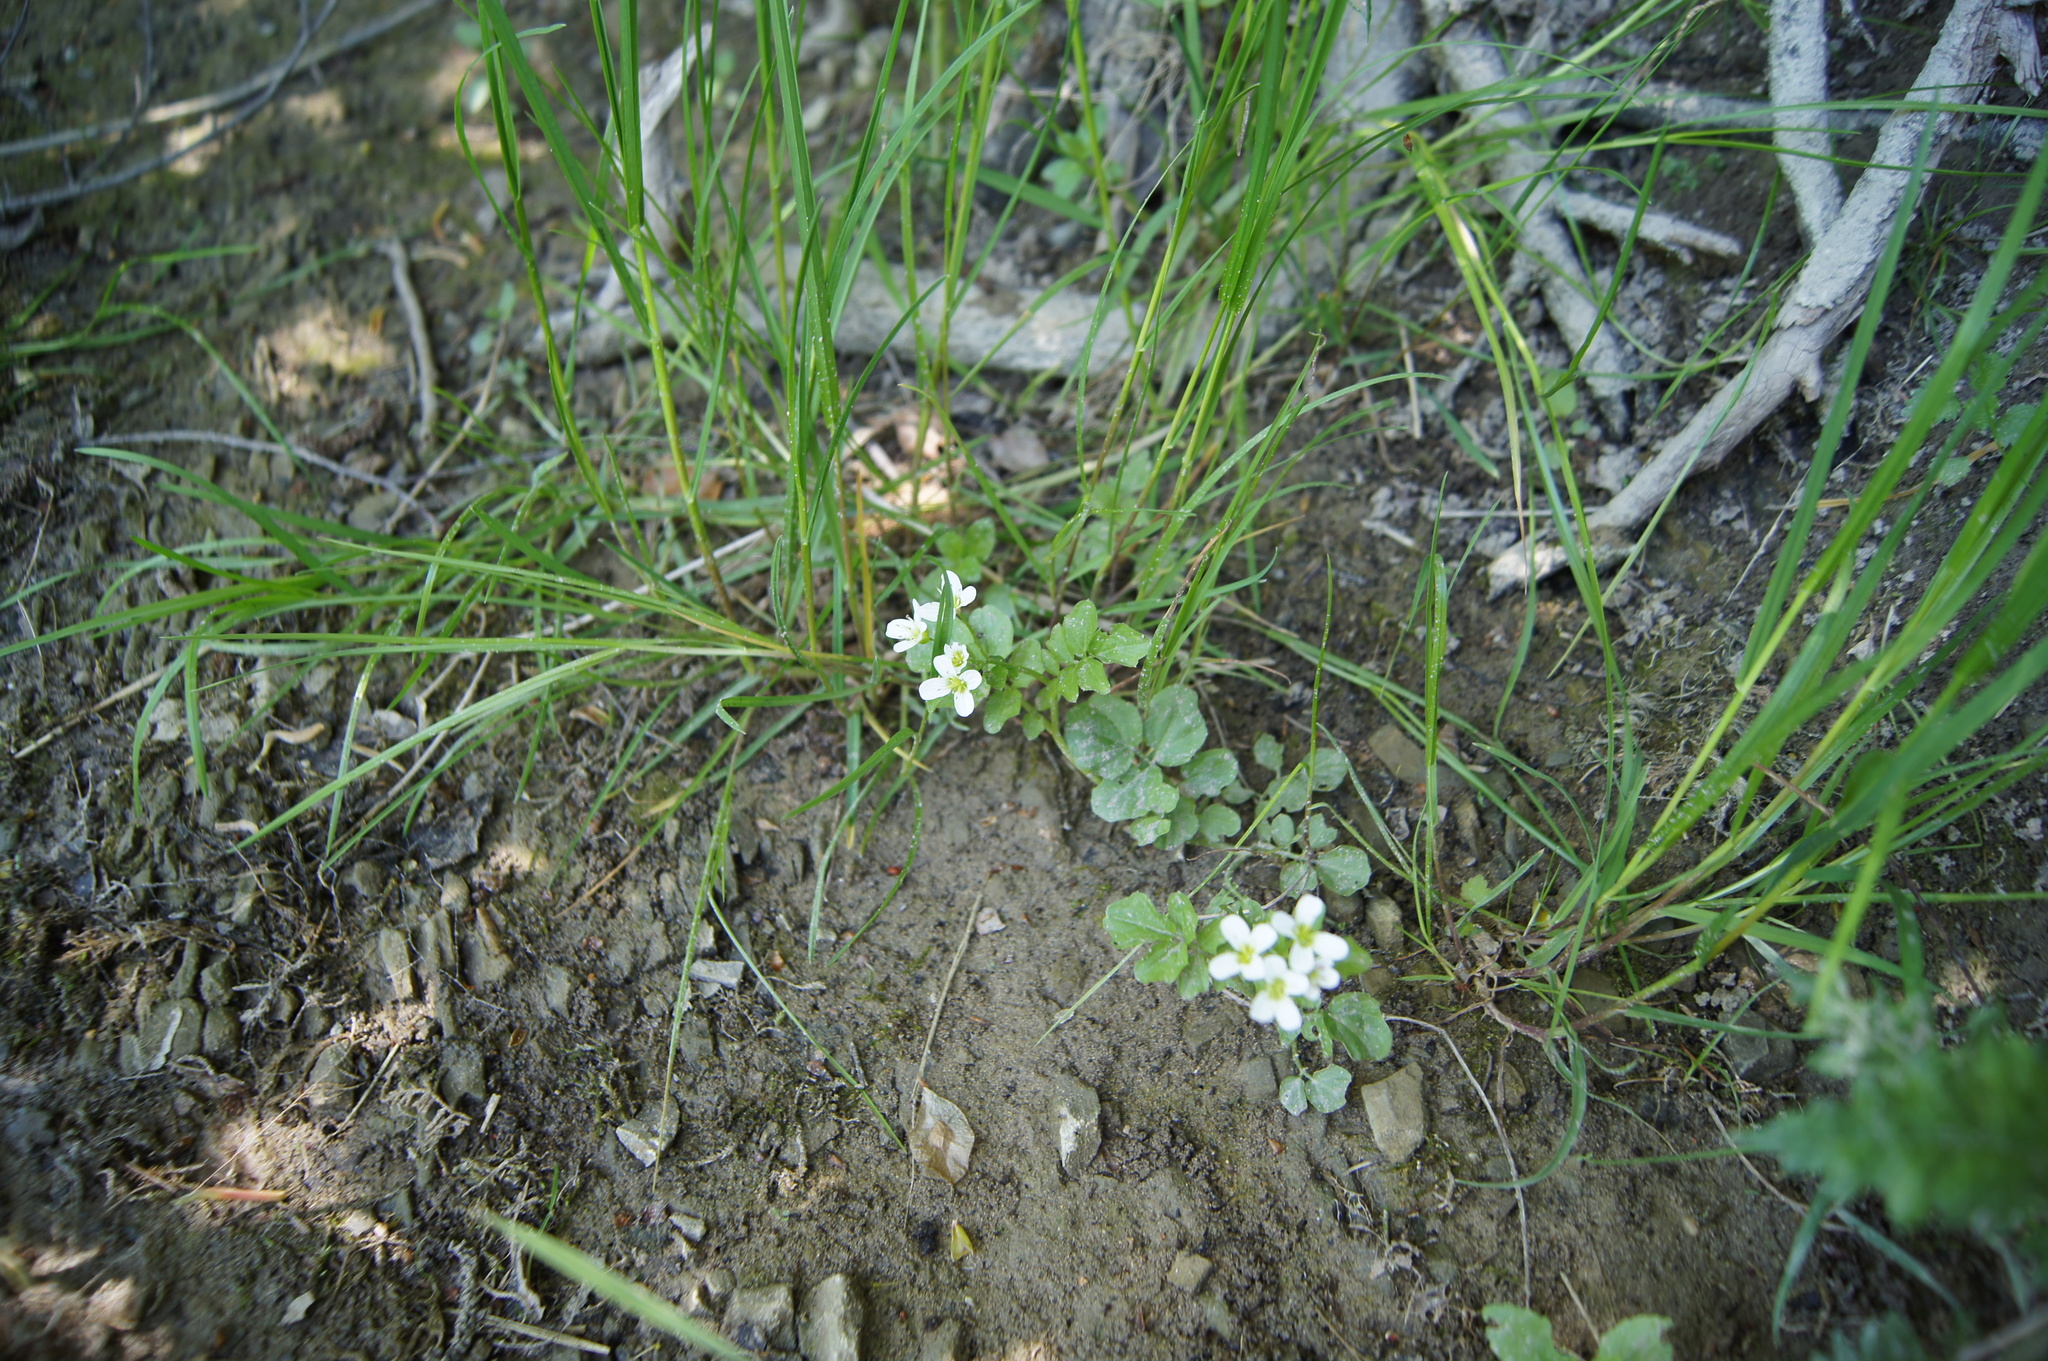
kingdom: Plantae
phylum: Tracheophyta
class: Magnoliopsida
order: Brassicales
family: Brassicaceae
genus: Cardamine
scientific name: Cardamine amara
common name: Large bitter-cress
